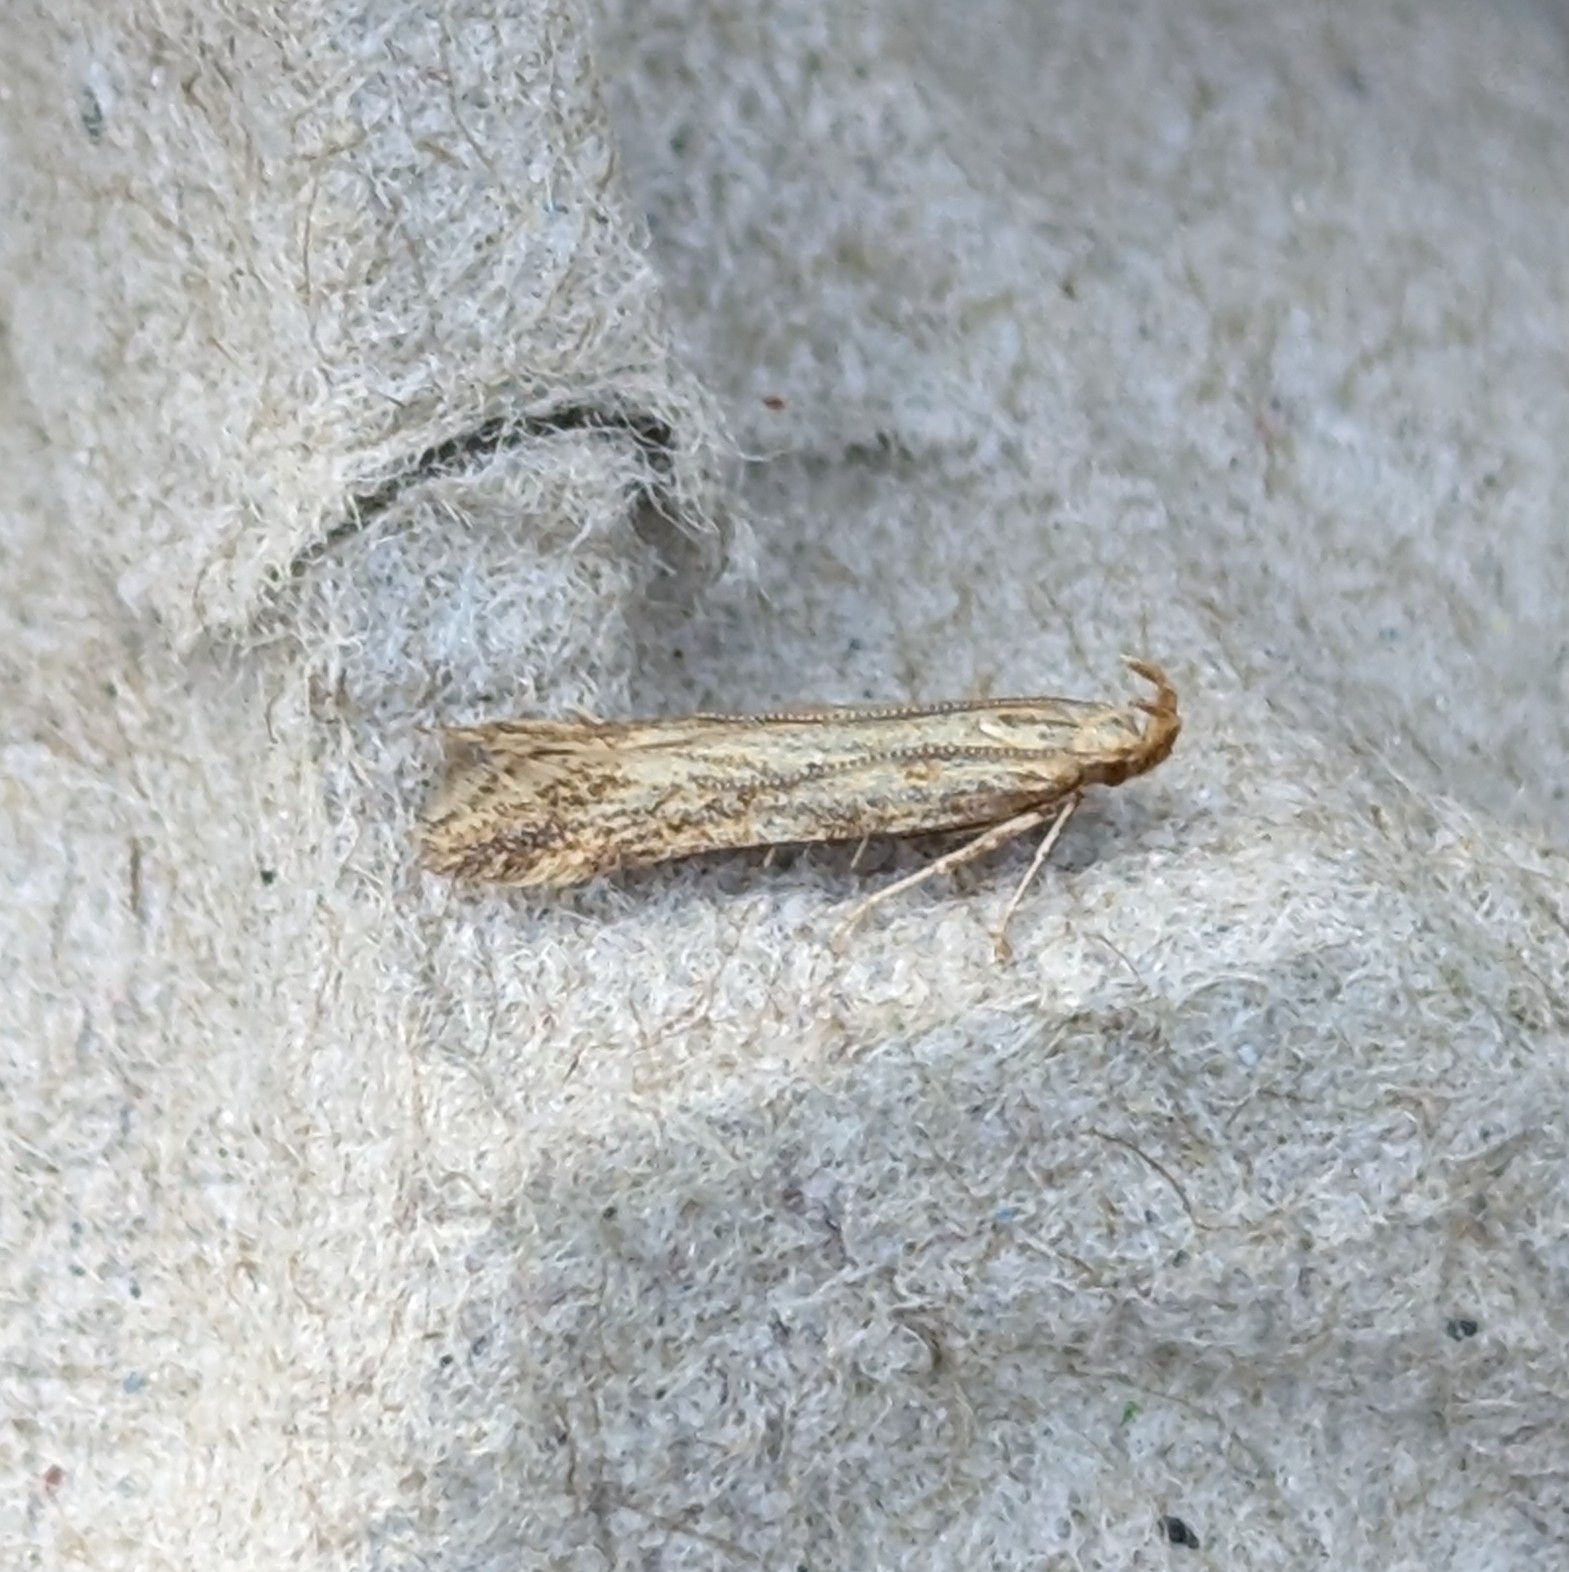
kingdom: Animalia
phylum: Arthropoda
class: Insecta
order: Lepidoptera
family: Gelechiidae
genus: Metzneria
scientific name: Metzneria lappella
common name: Burdock neb
